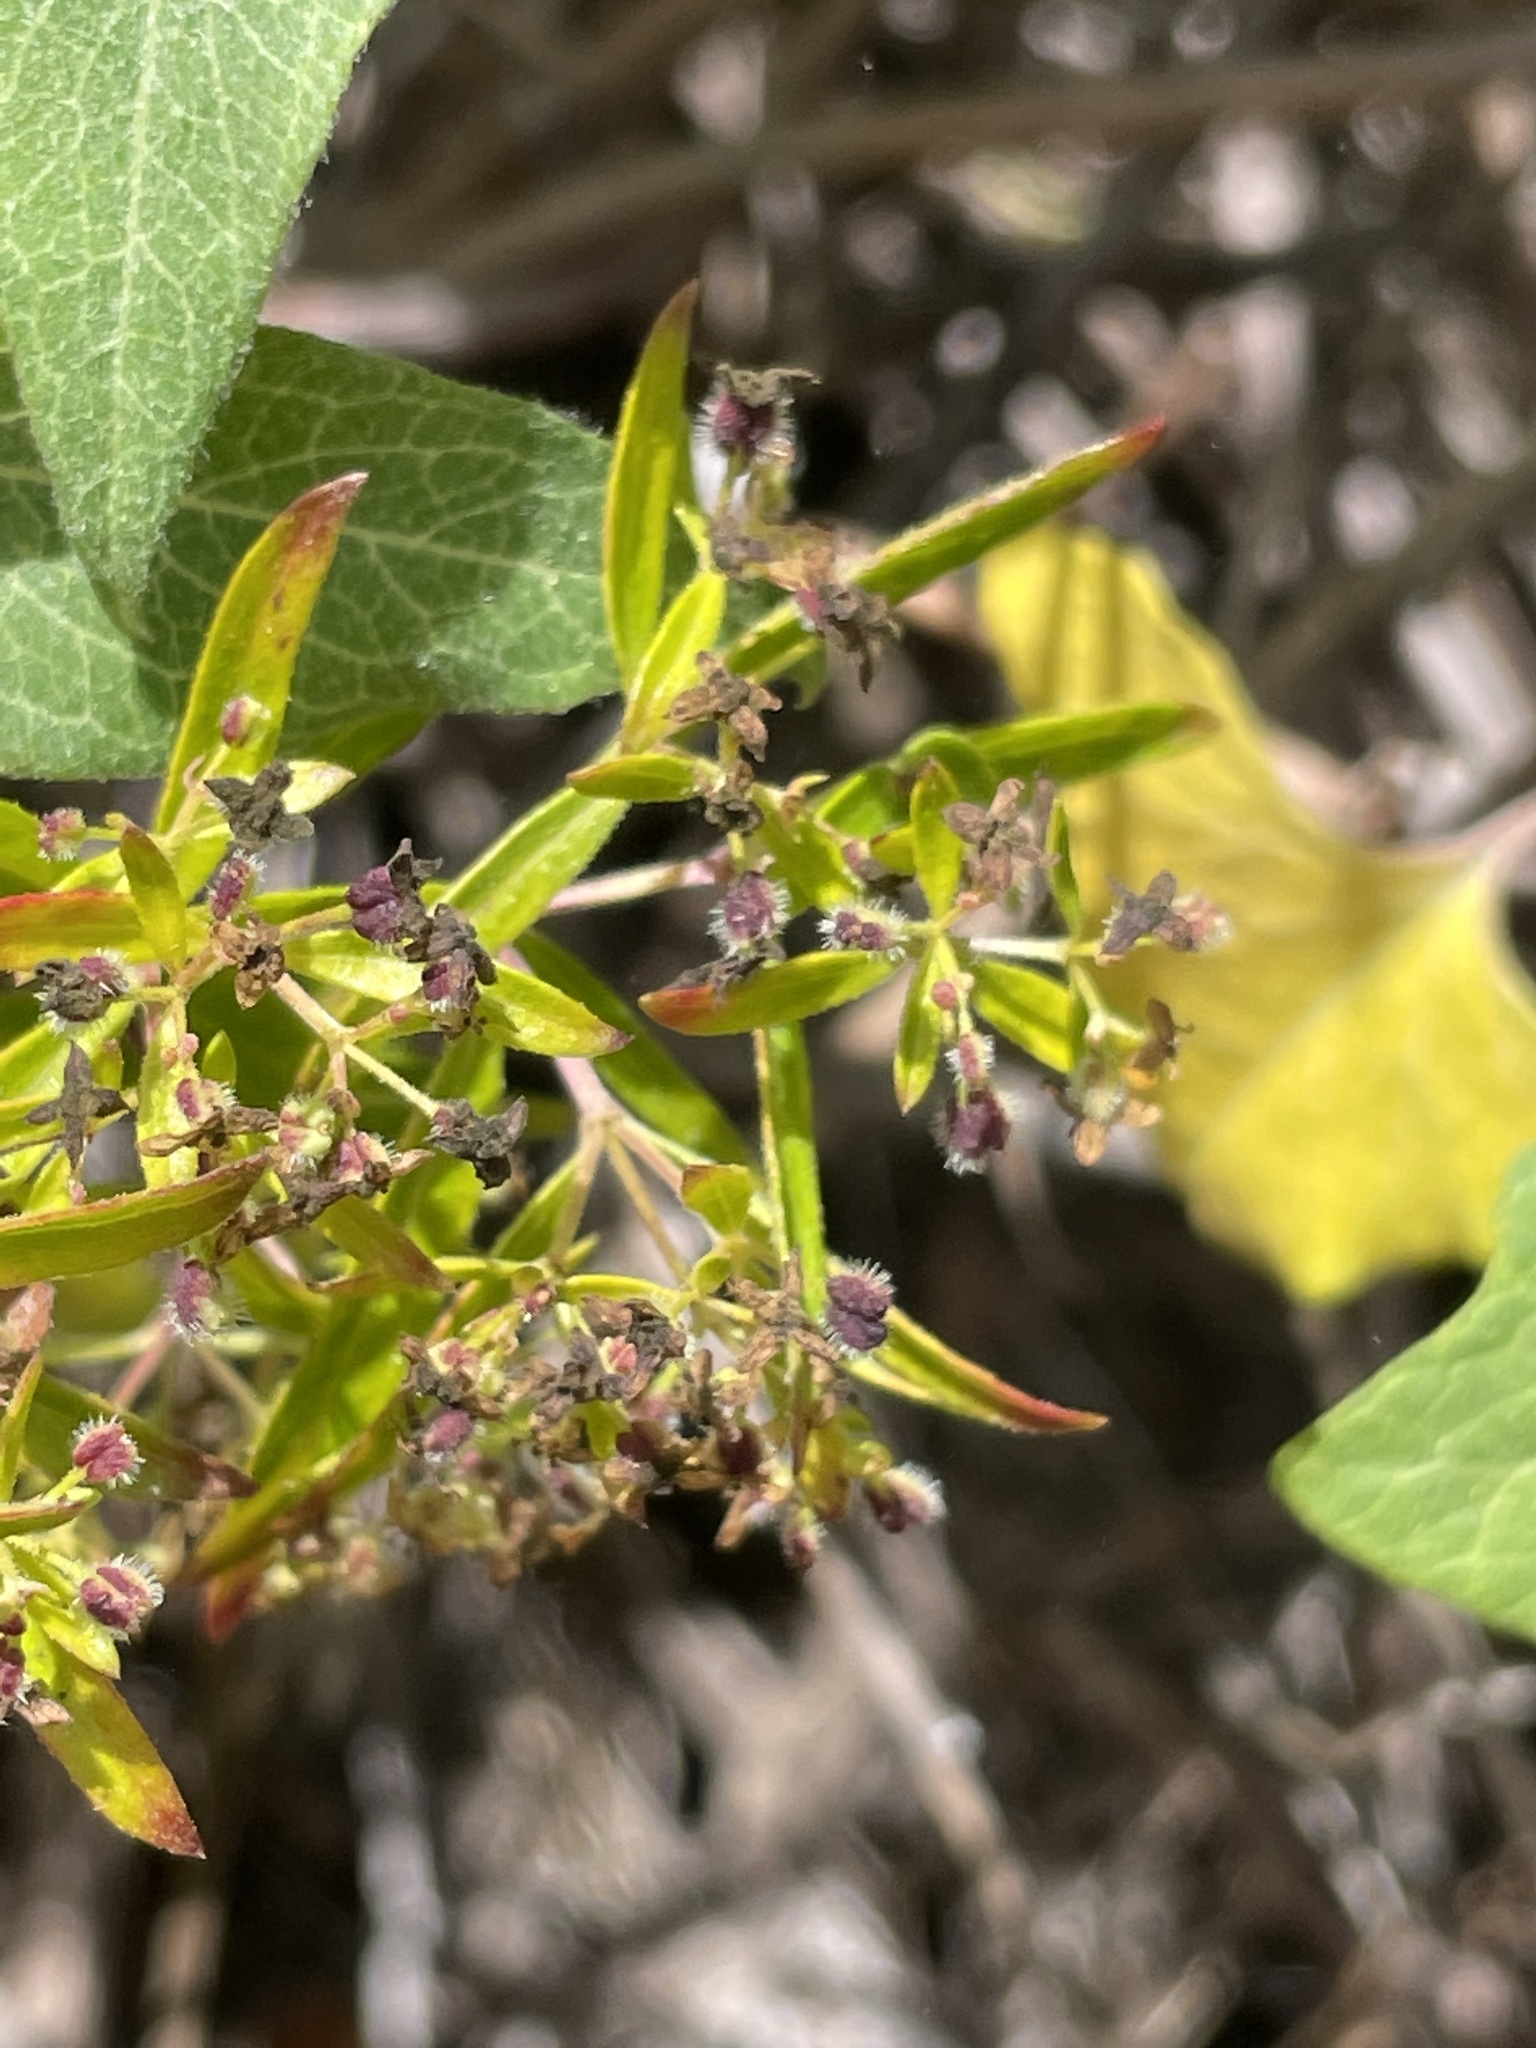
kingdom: Plantae
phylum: Tracheophyta
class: Magnoliopsida
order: Gentianales
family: Rubiaceae
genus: Galium
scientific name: Galium catalinense
